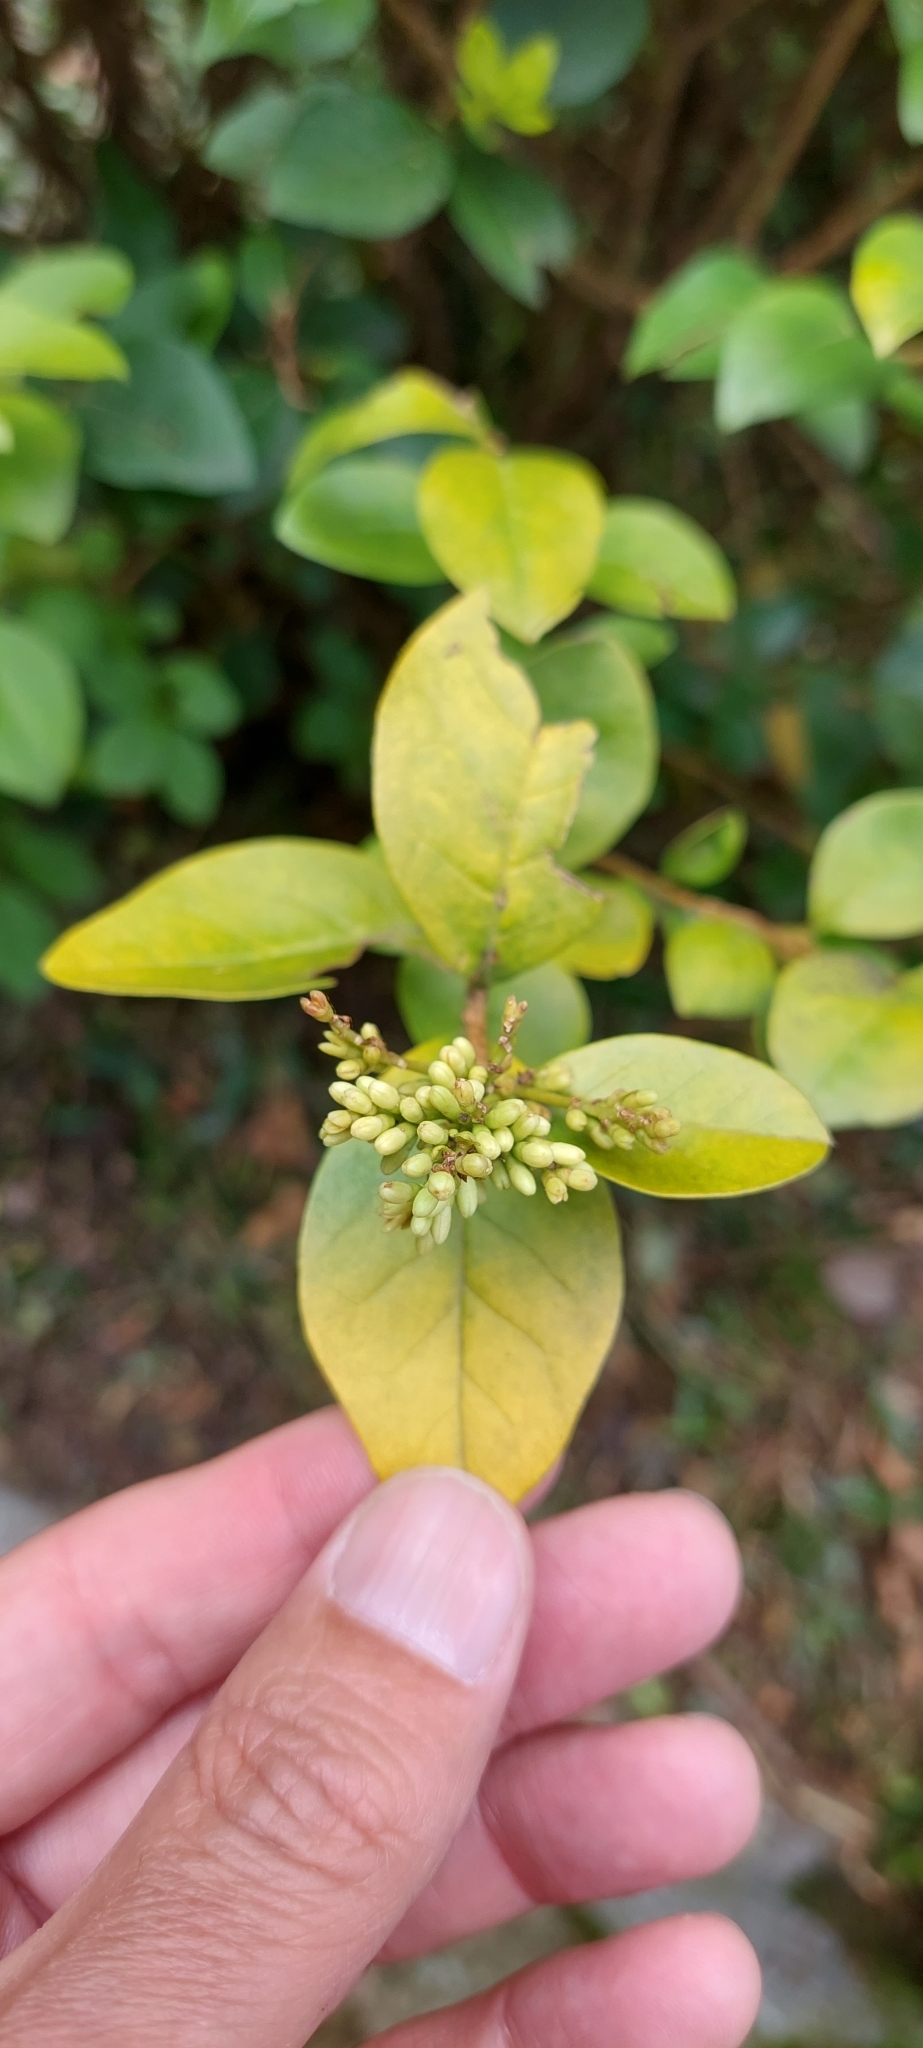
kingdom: Plantae
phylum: Tracheophyta
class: Magnoliopsida
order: Lamiales
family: Oleaceae
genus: Ligustrum
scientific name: Ligustrum ovalifolium
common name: California privet
